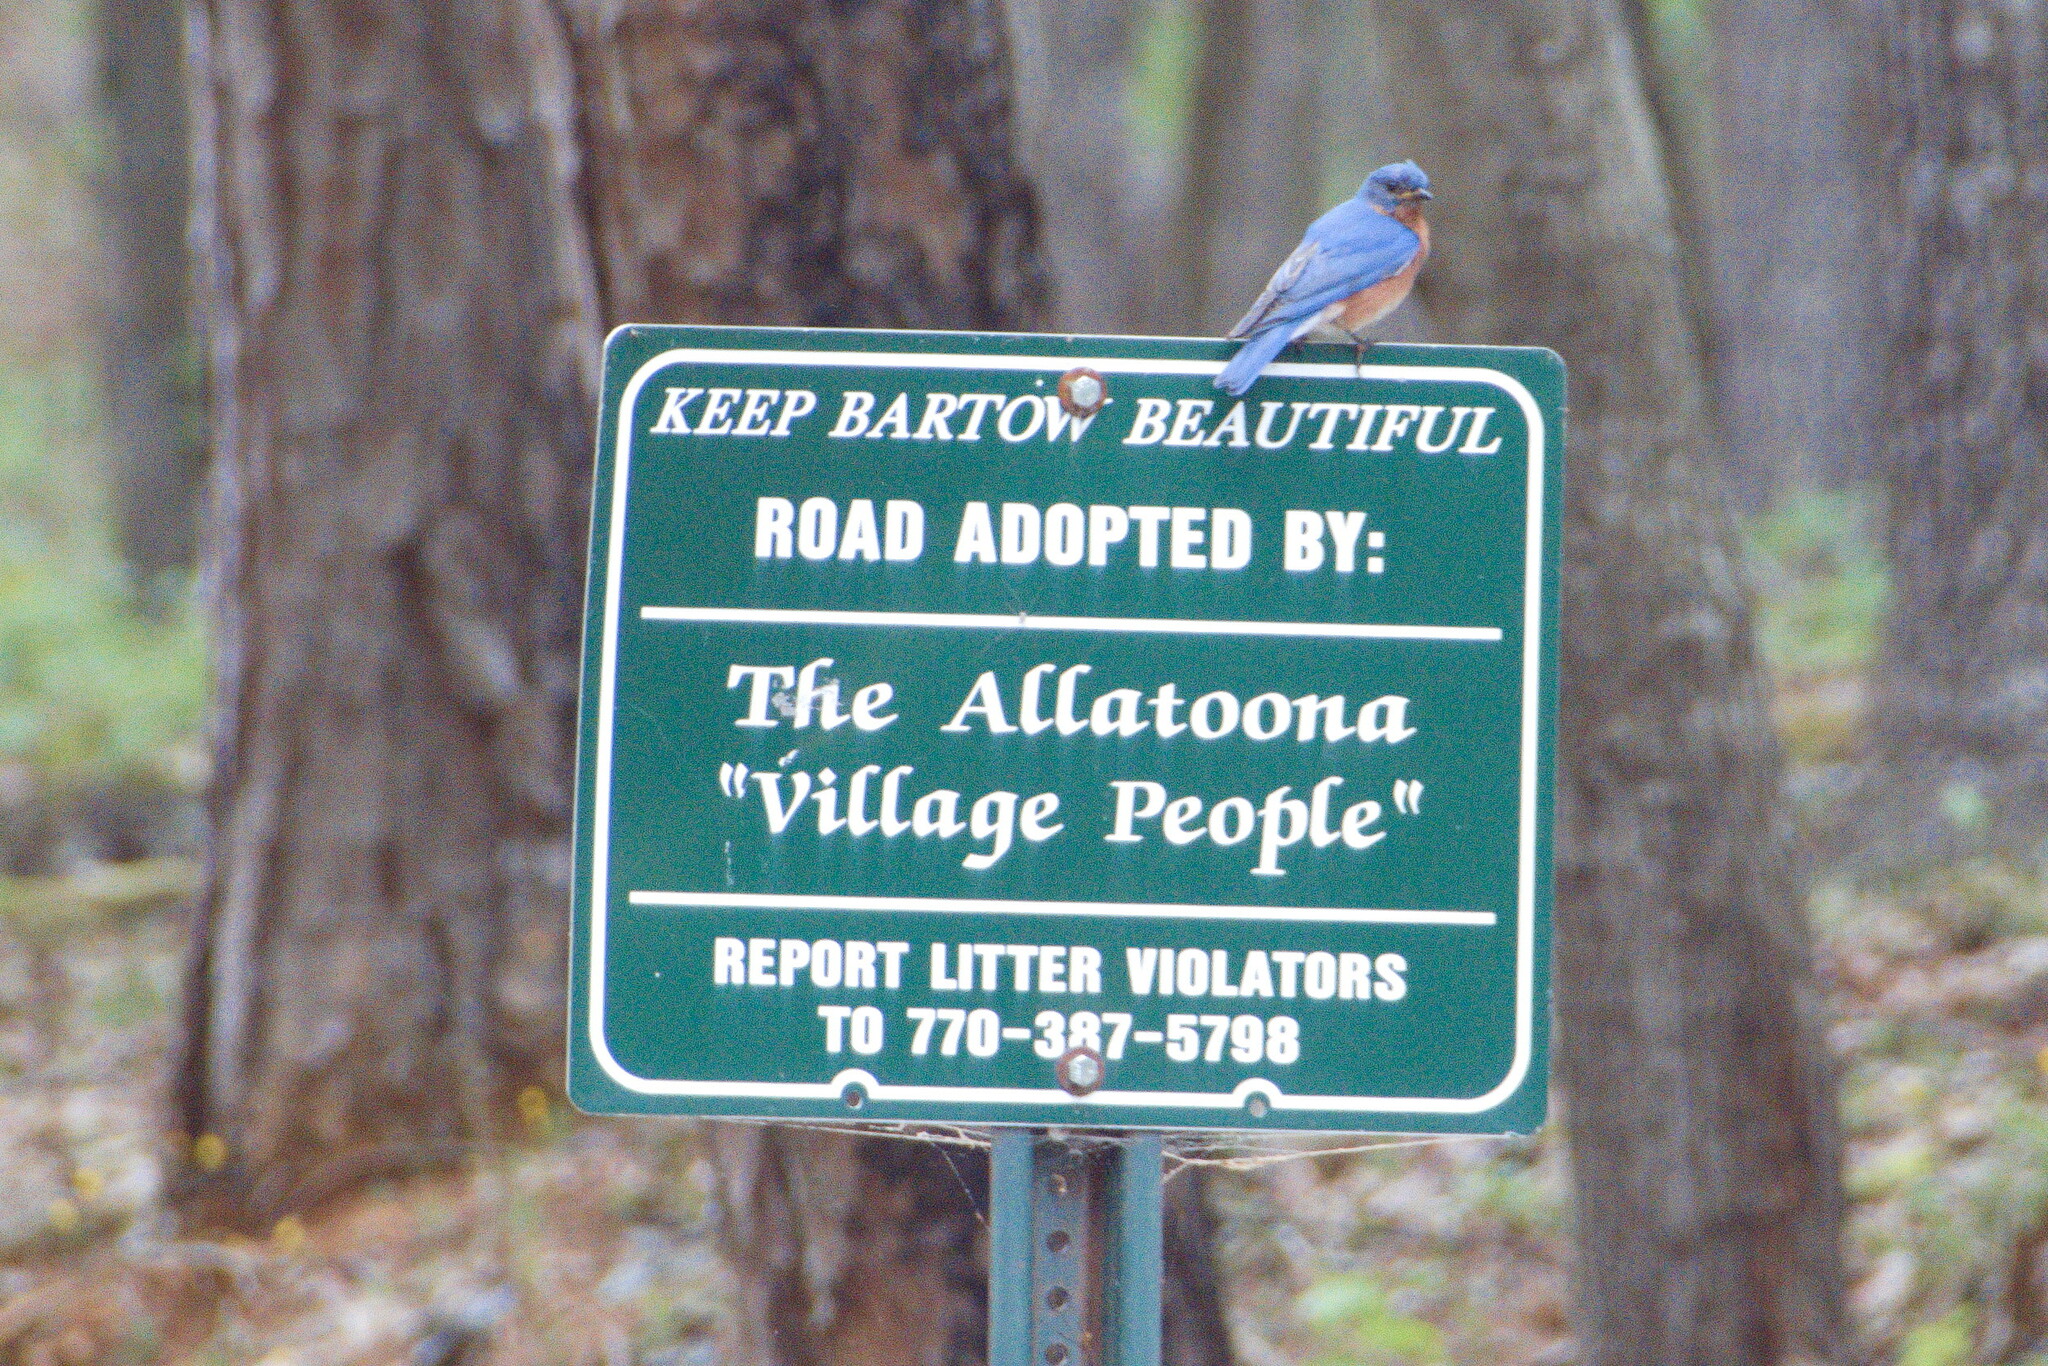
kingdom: Animalia
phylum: Chordata
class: Aves
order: Passeriformes
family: Turdidae
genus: Sialia
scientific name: Sialia sialis
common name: Eastern bluebird
